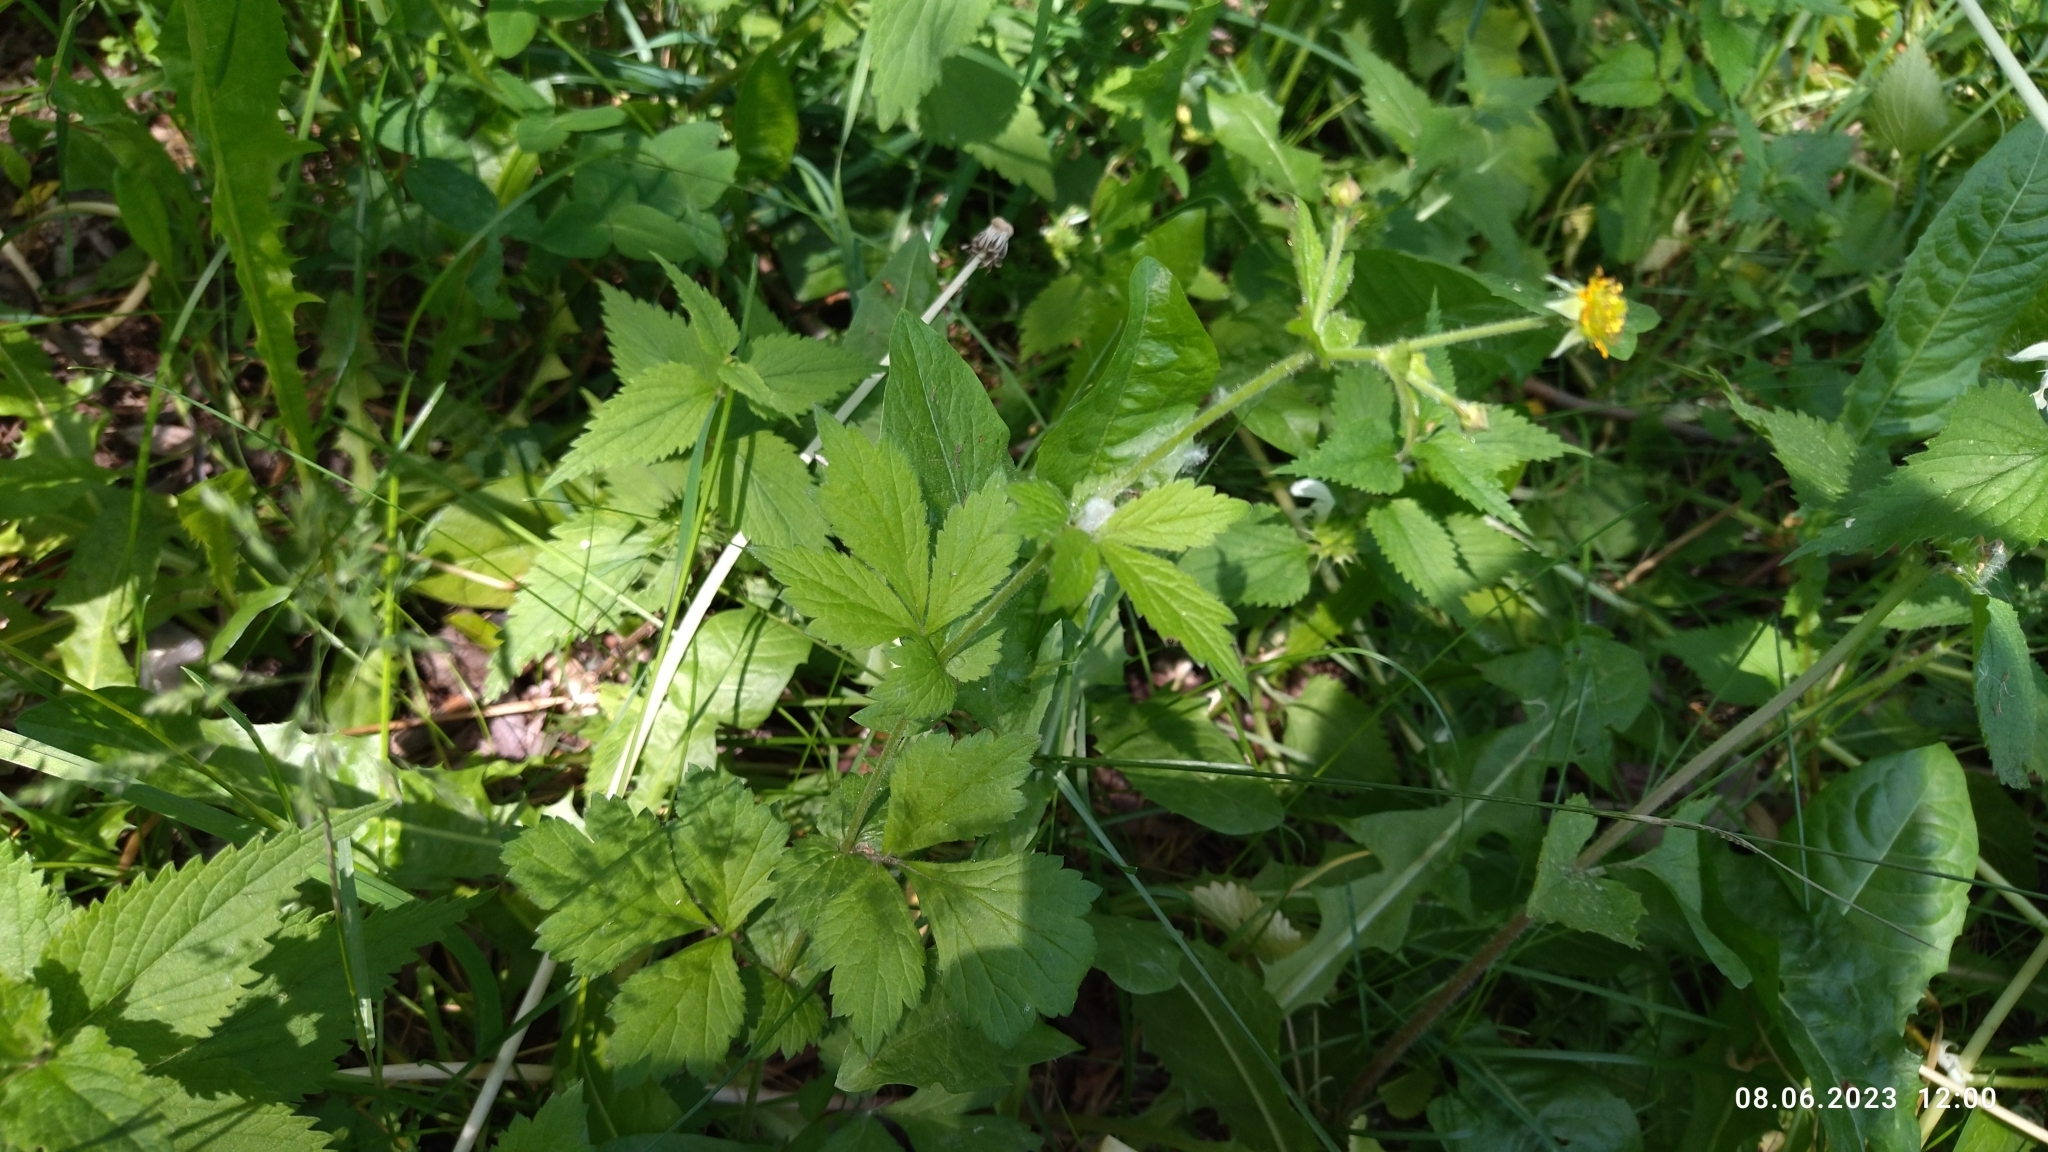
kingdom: Plantae
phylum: Tracheophyta
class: Magnoliopsida
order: Rosales
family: Rosaceae
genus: Geum
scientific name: Geum urbanum
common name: Wood avens
